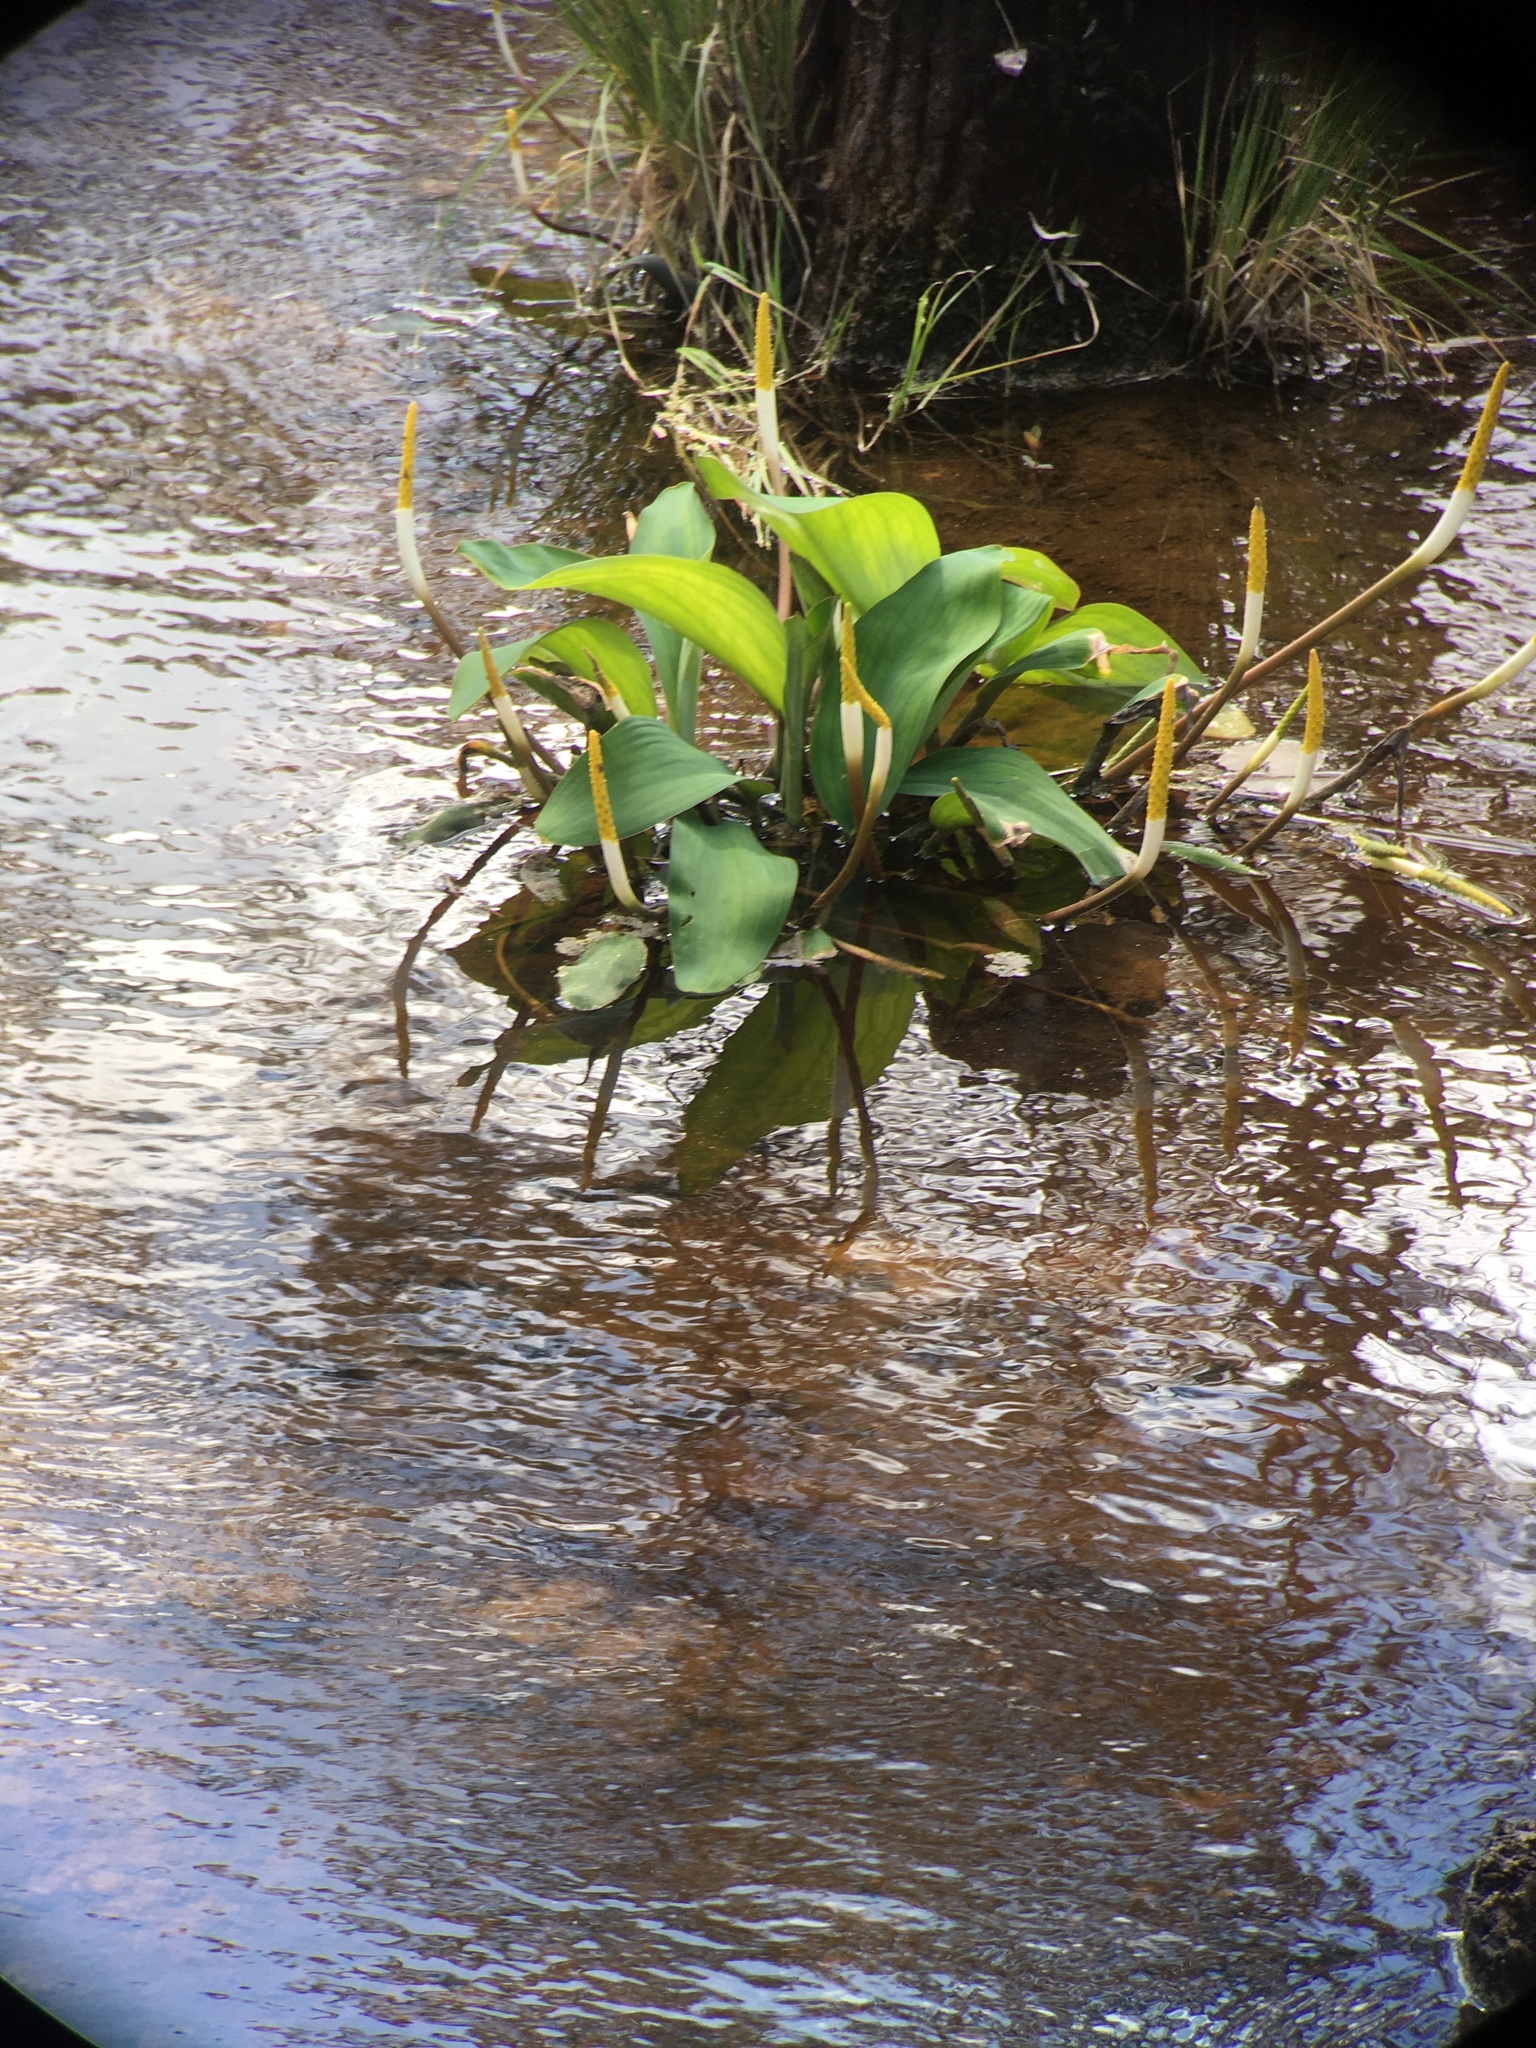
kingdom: Plantae
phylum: Tracheophyta
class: Liliopsida
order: Alismatales
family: Araceae
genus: Orontium
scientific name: Orontium aquaticum
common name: Golden-club
